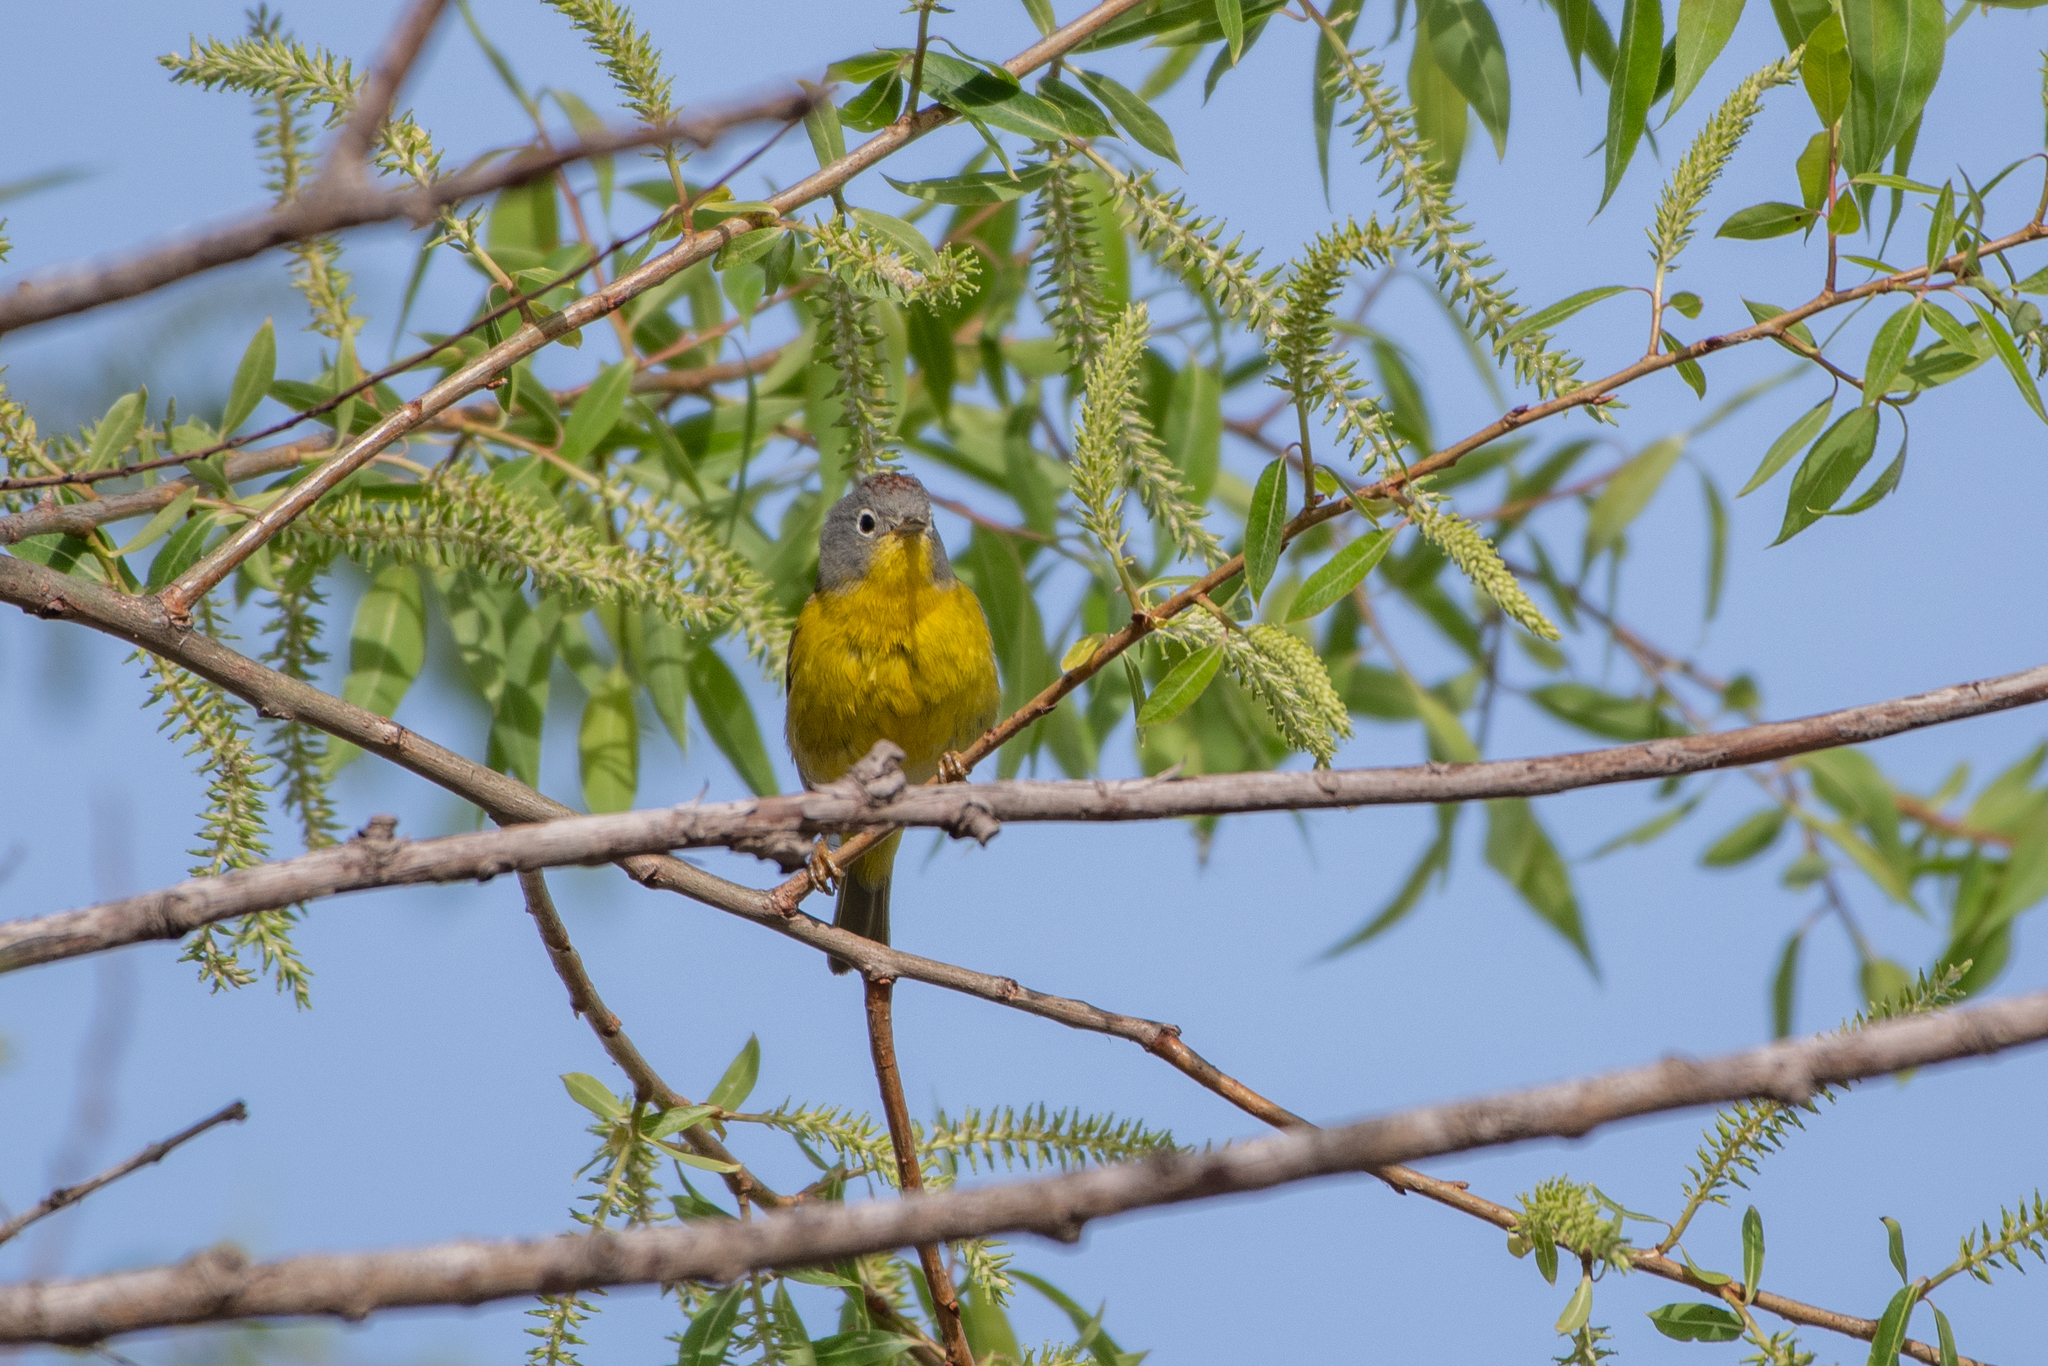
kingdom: Animalia
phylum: Chordata
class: Aves
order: Passeriformes
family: Parulidae
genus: Leiothlypis
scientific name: Leiothlypis ruficapilla
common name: Nashville warbler
